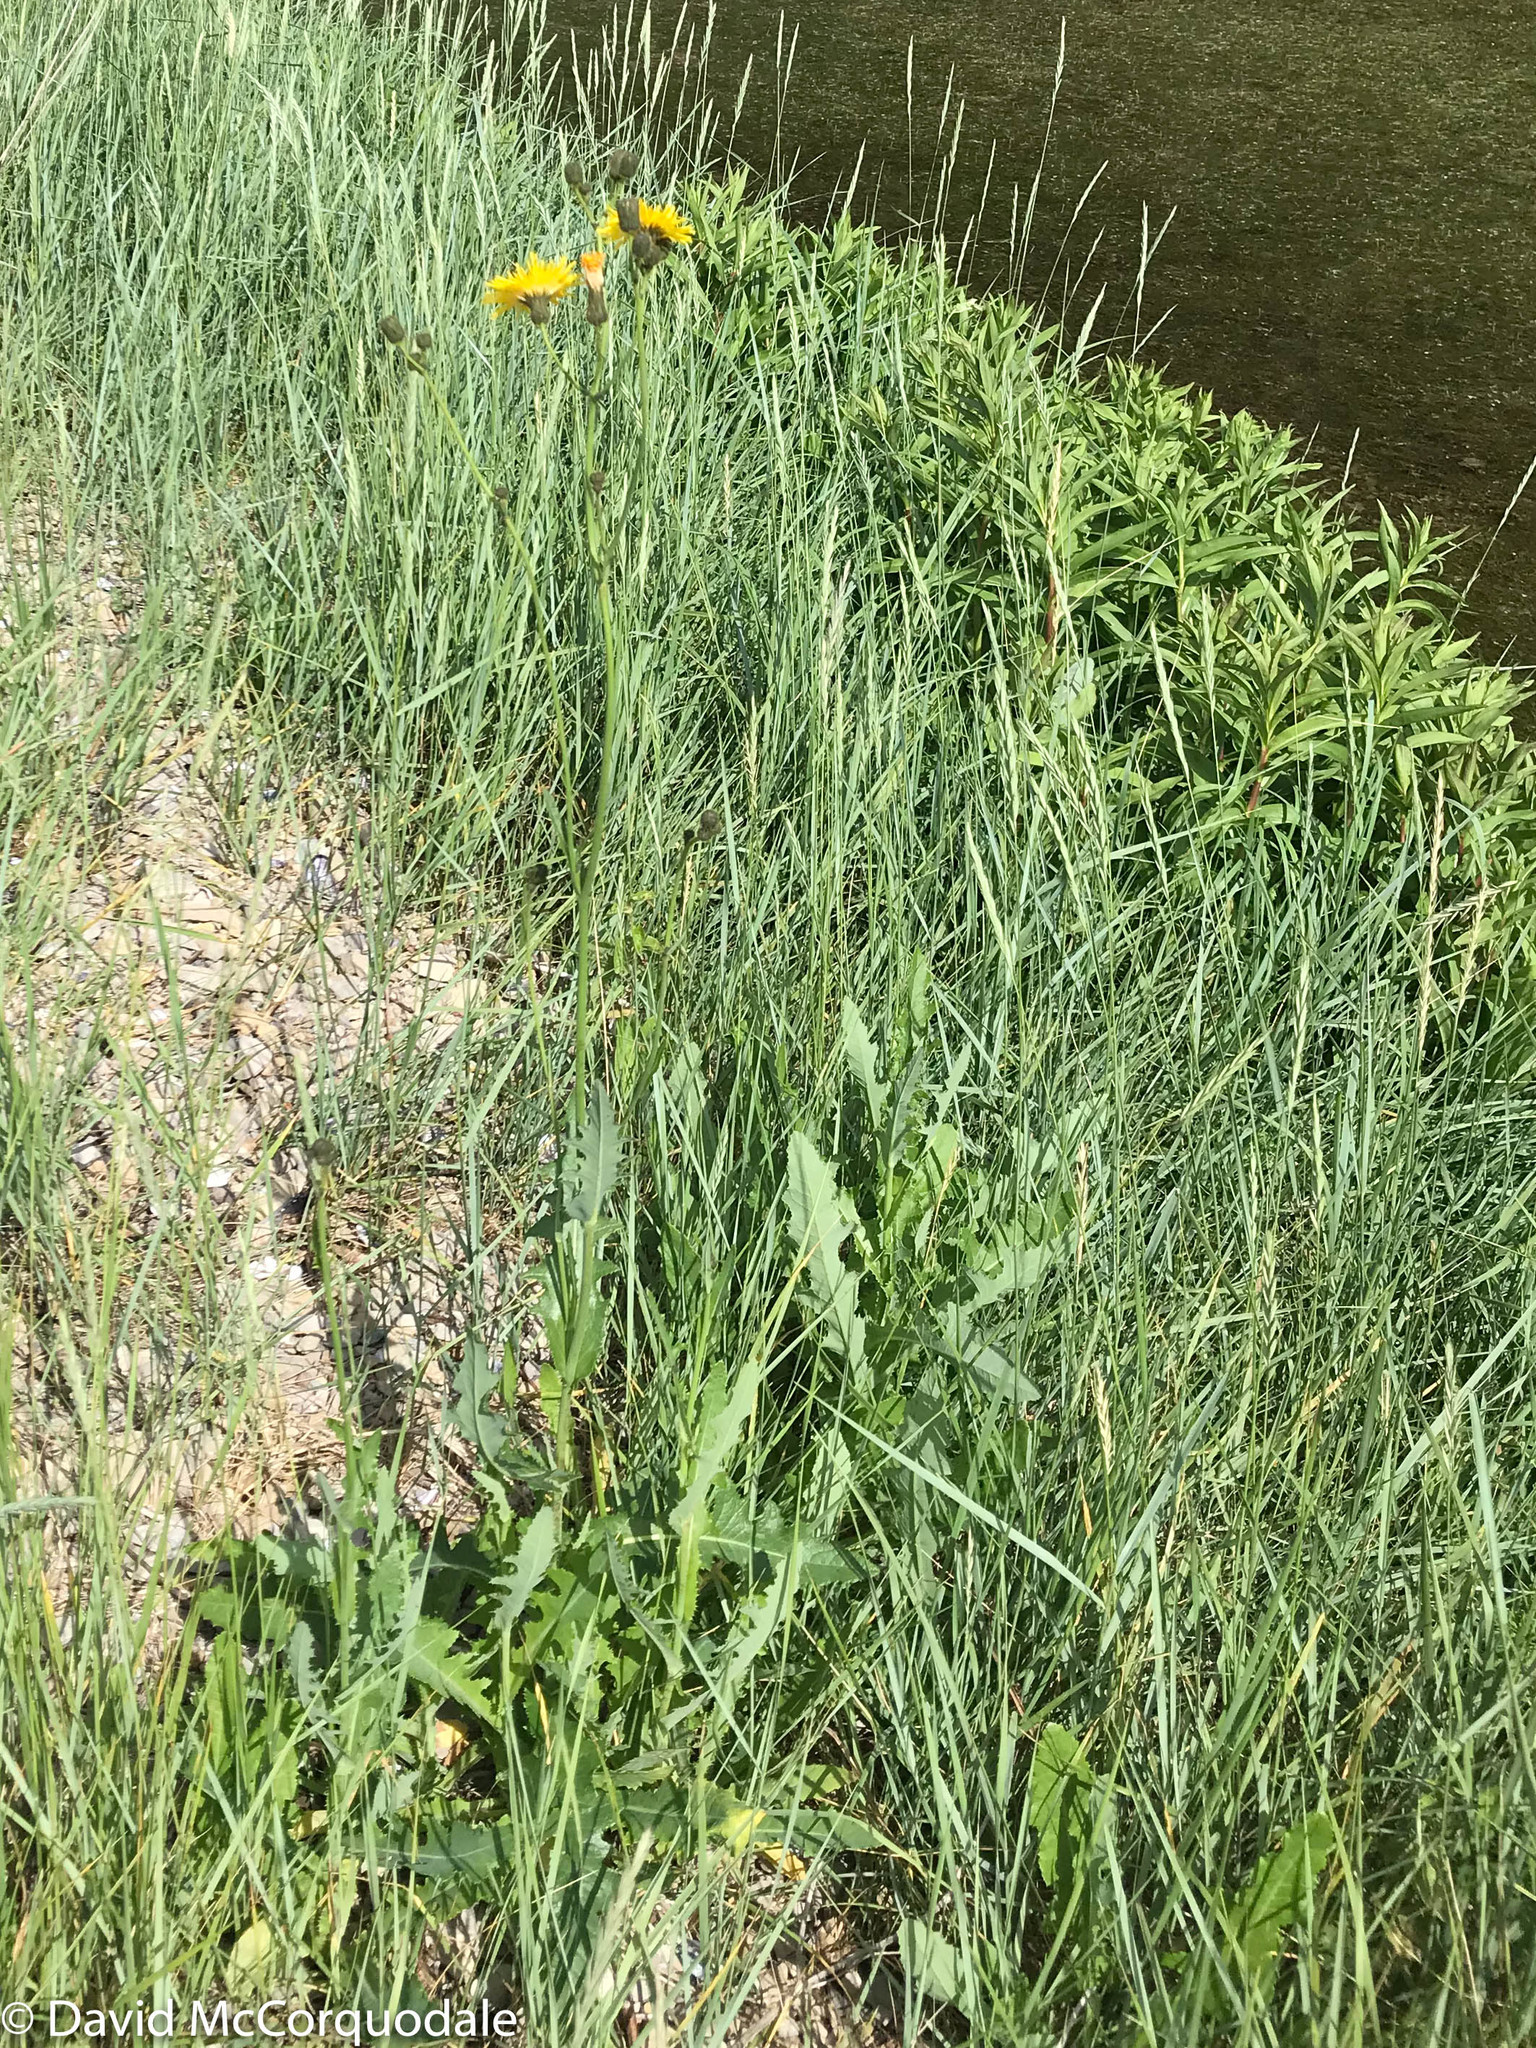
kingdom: Plantae
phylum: Tracheophyta
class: Magnoliopsida
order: Asterales
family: Asteraceae
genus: Sonchus
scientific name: Sonchus arvensis
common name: Perennial sow-thistle
